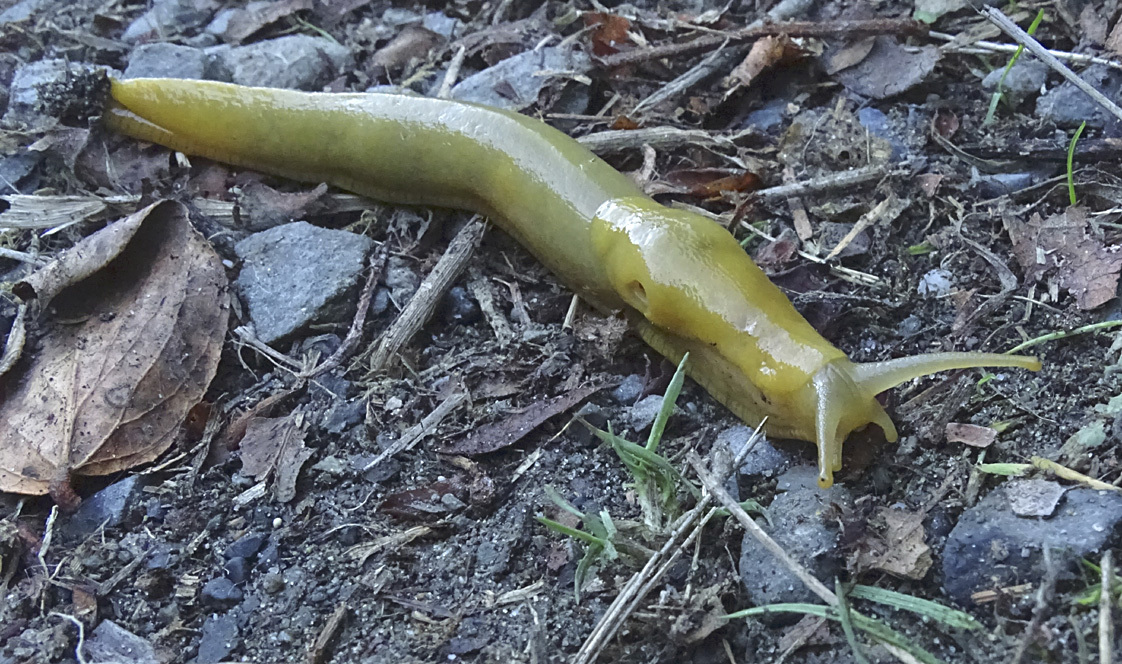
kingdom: Animalia
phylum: Mollusca
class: Gastropoda
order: Stylommatophora
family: Ariolimacidae
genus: Ariolimax
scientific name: Ariolimax columbianus
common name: Pacific banana slug
